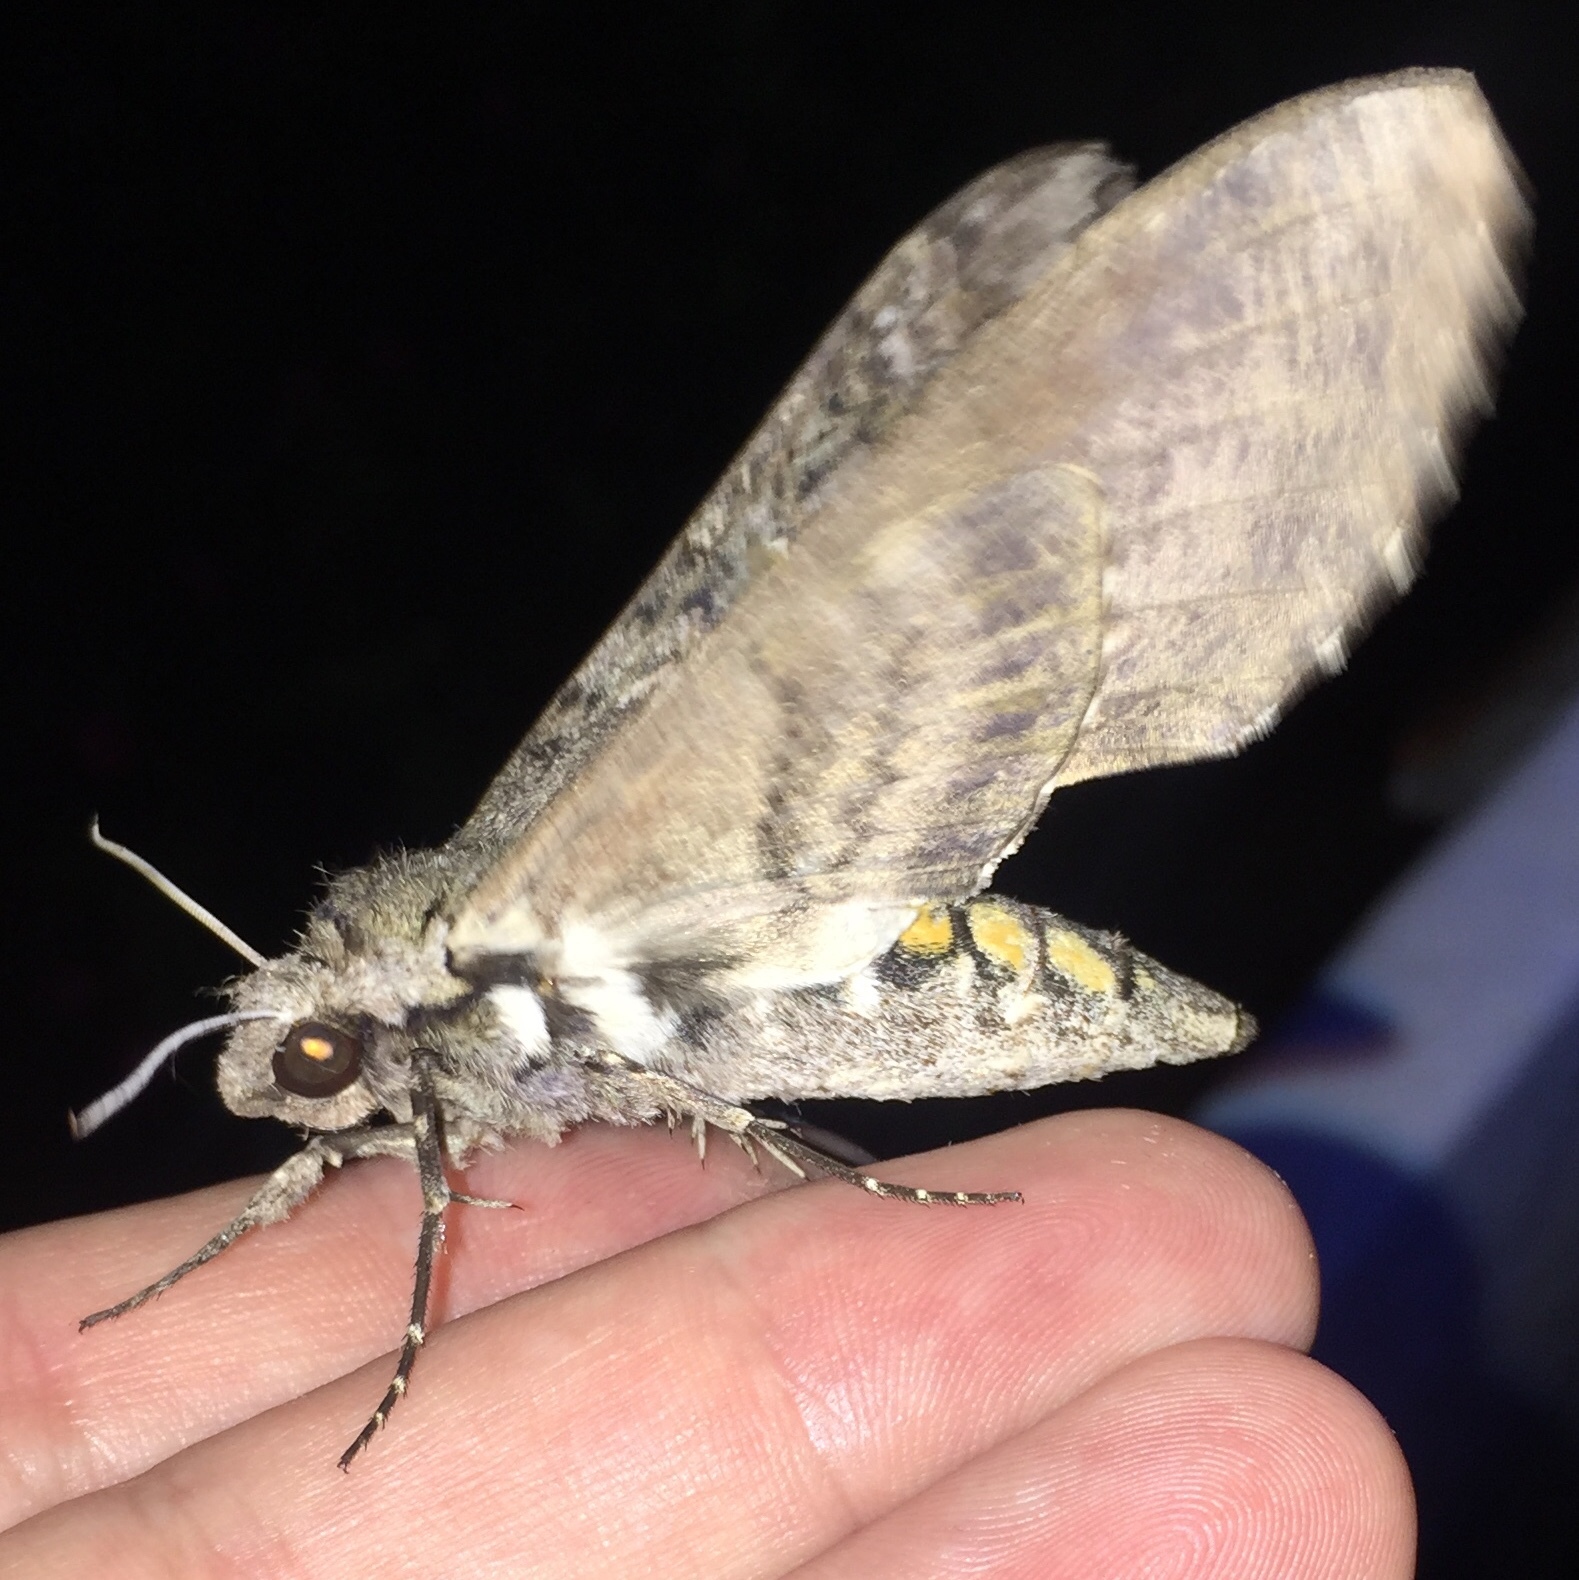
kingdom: Animalia
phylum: Arthropoda
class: Insecta
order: Lepidoptera
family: Sphingidae
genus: Manduca
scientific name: Manduca sexta
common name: Carolina sphinx
